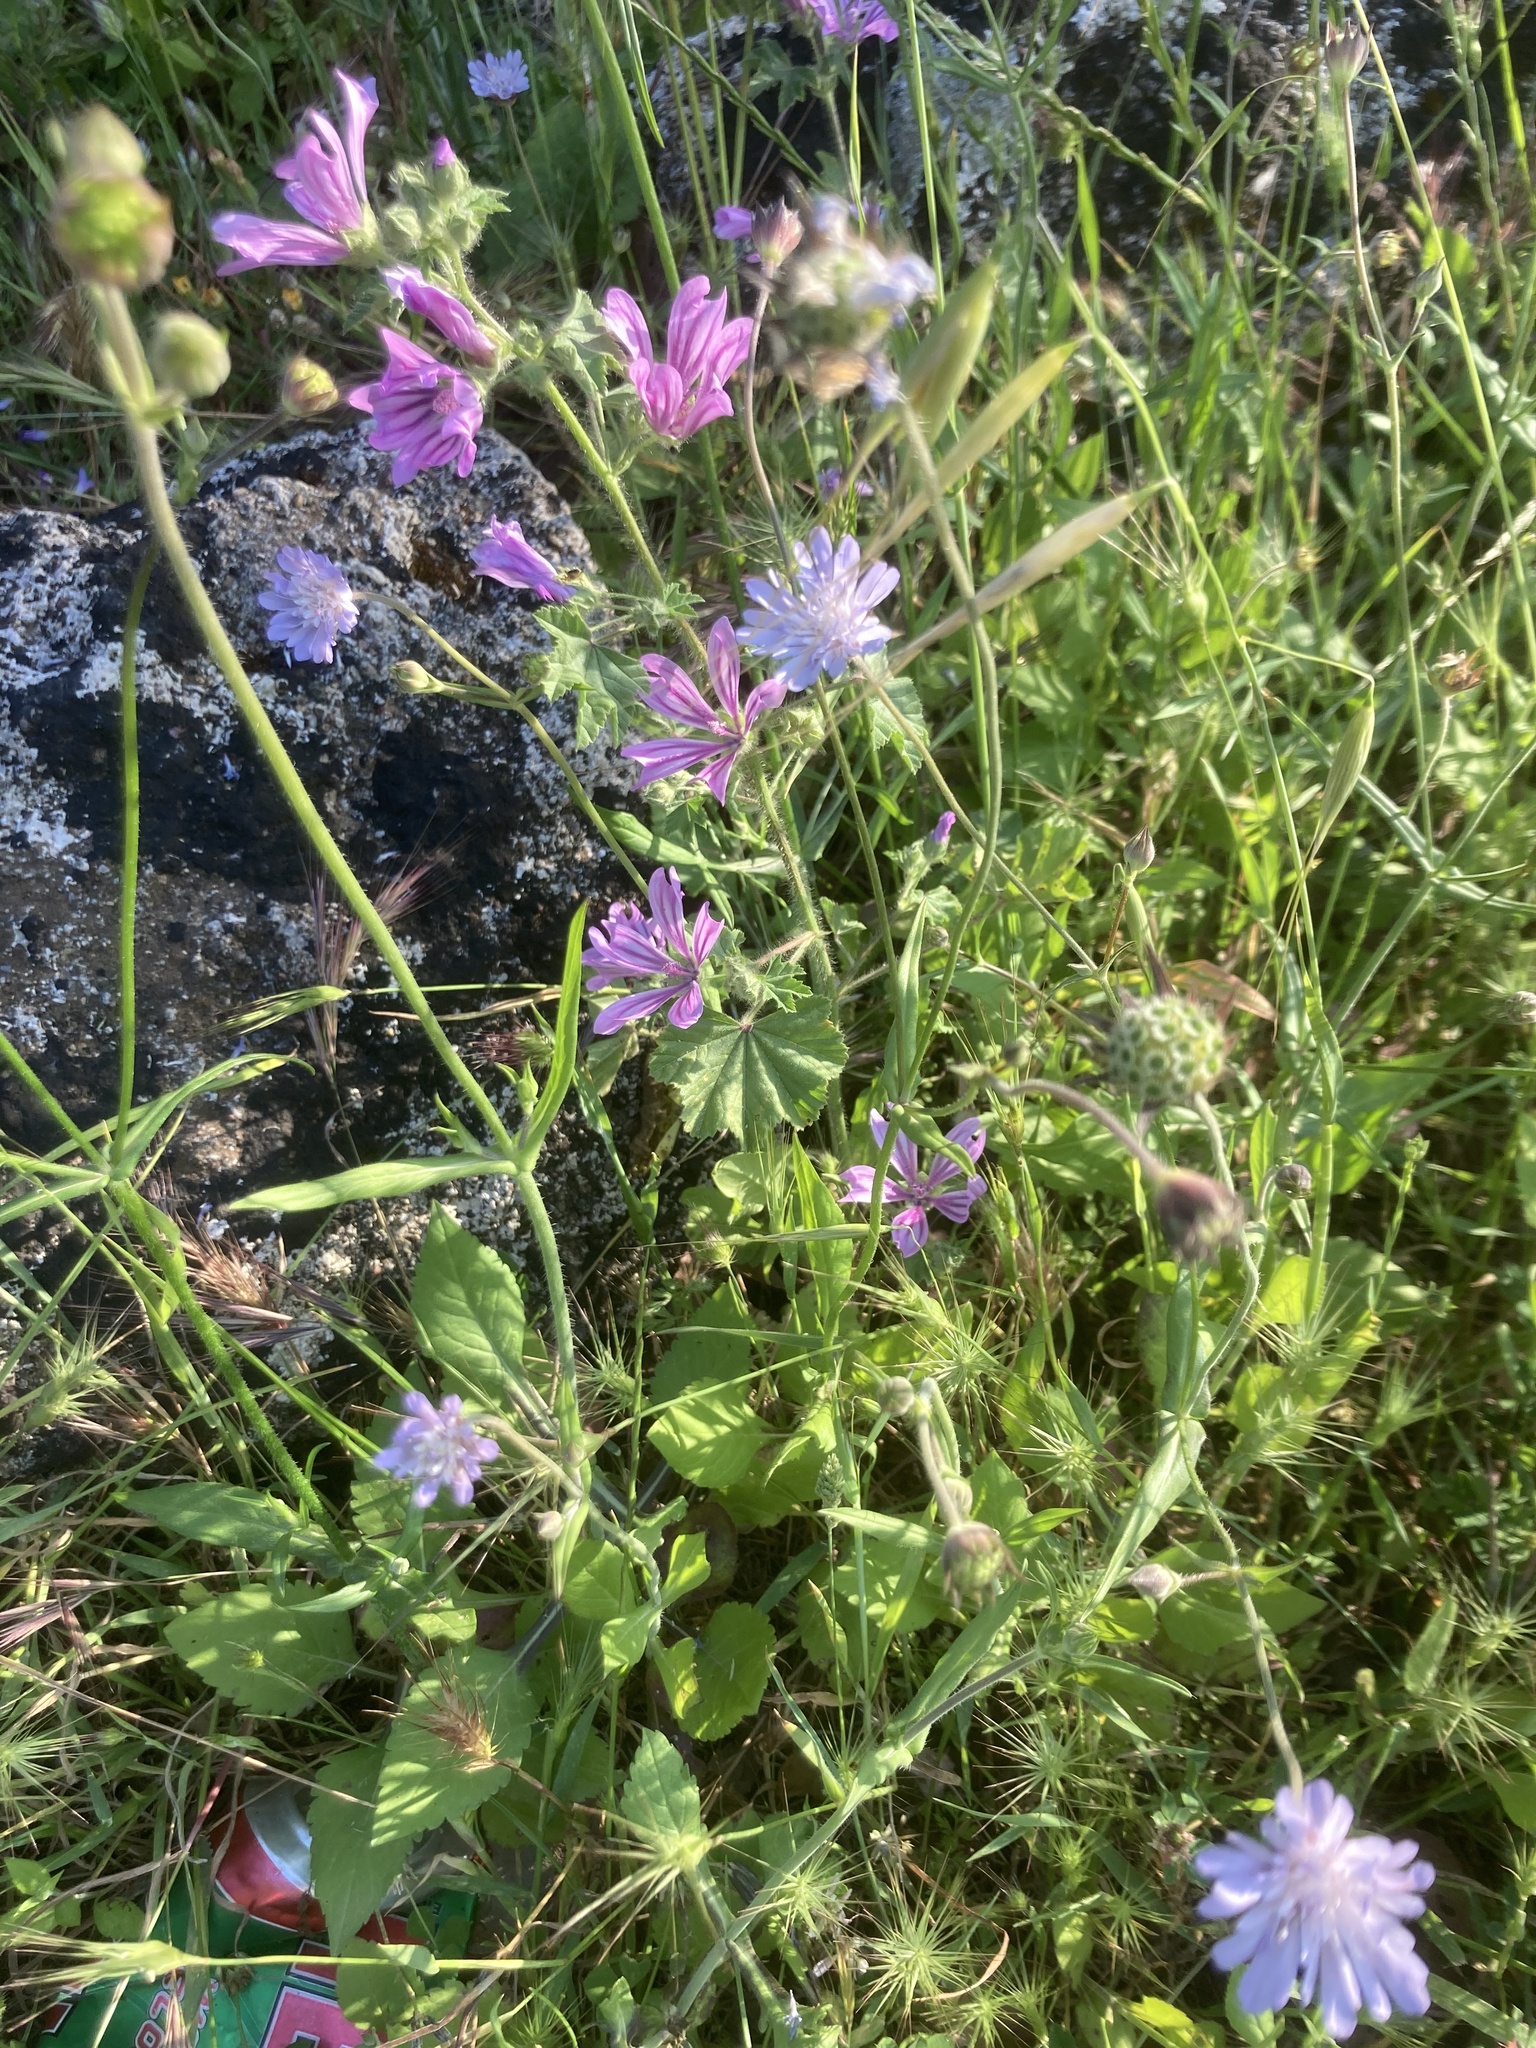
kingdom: Plantae
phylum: Tracheophyta
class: Magnoliopsida
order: Malvales
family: Malvaceae
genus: Malva
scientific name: Malva sylvestris
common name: Common mallow
